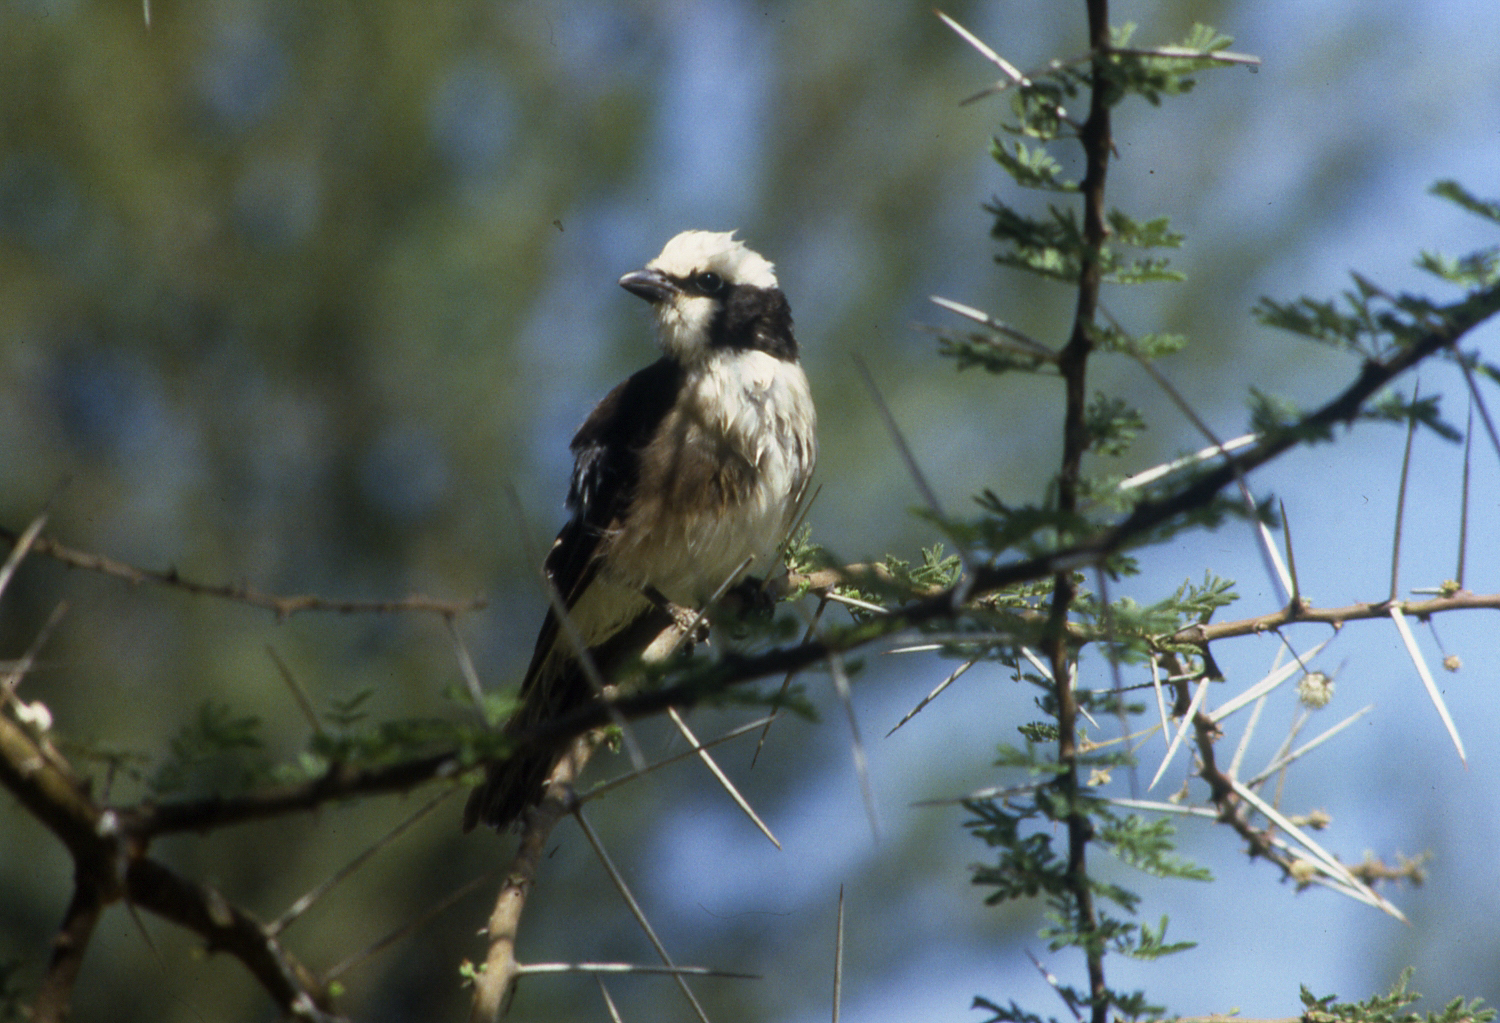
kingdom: Animalia
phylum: Chordata
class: Aves
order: Passeriformes
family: Laniidae
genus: Eurocephalus
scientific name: Eurocephalus ruppelli
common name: Northern white-crowned shrike
